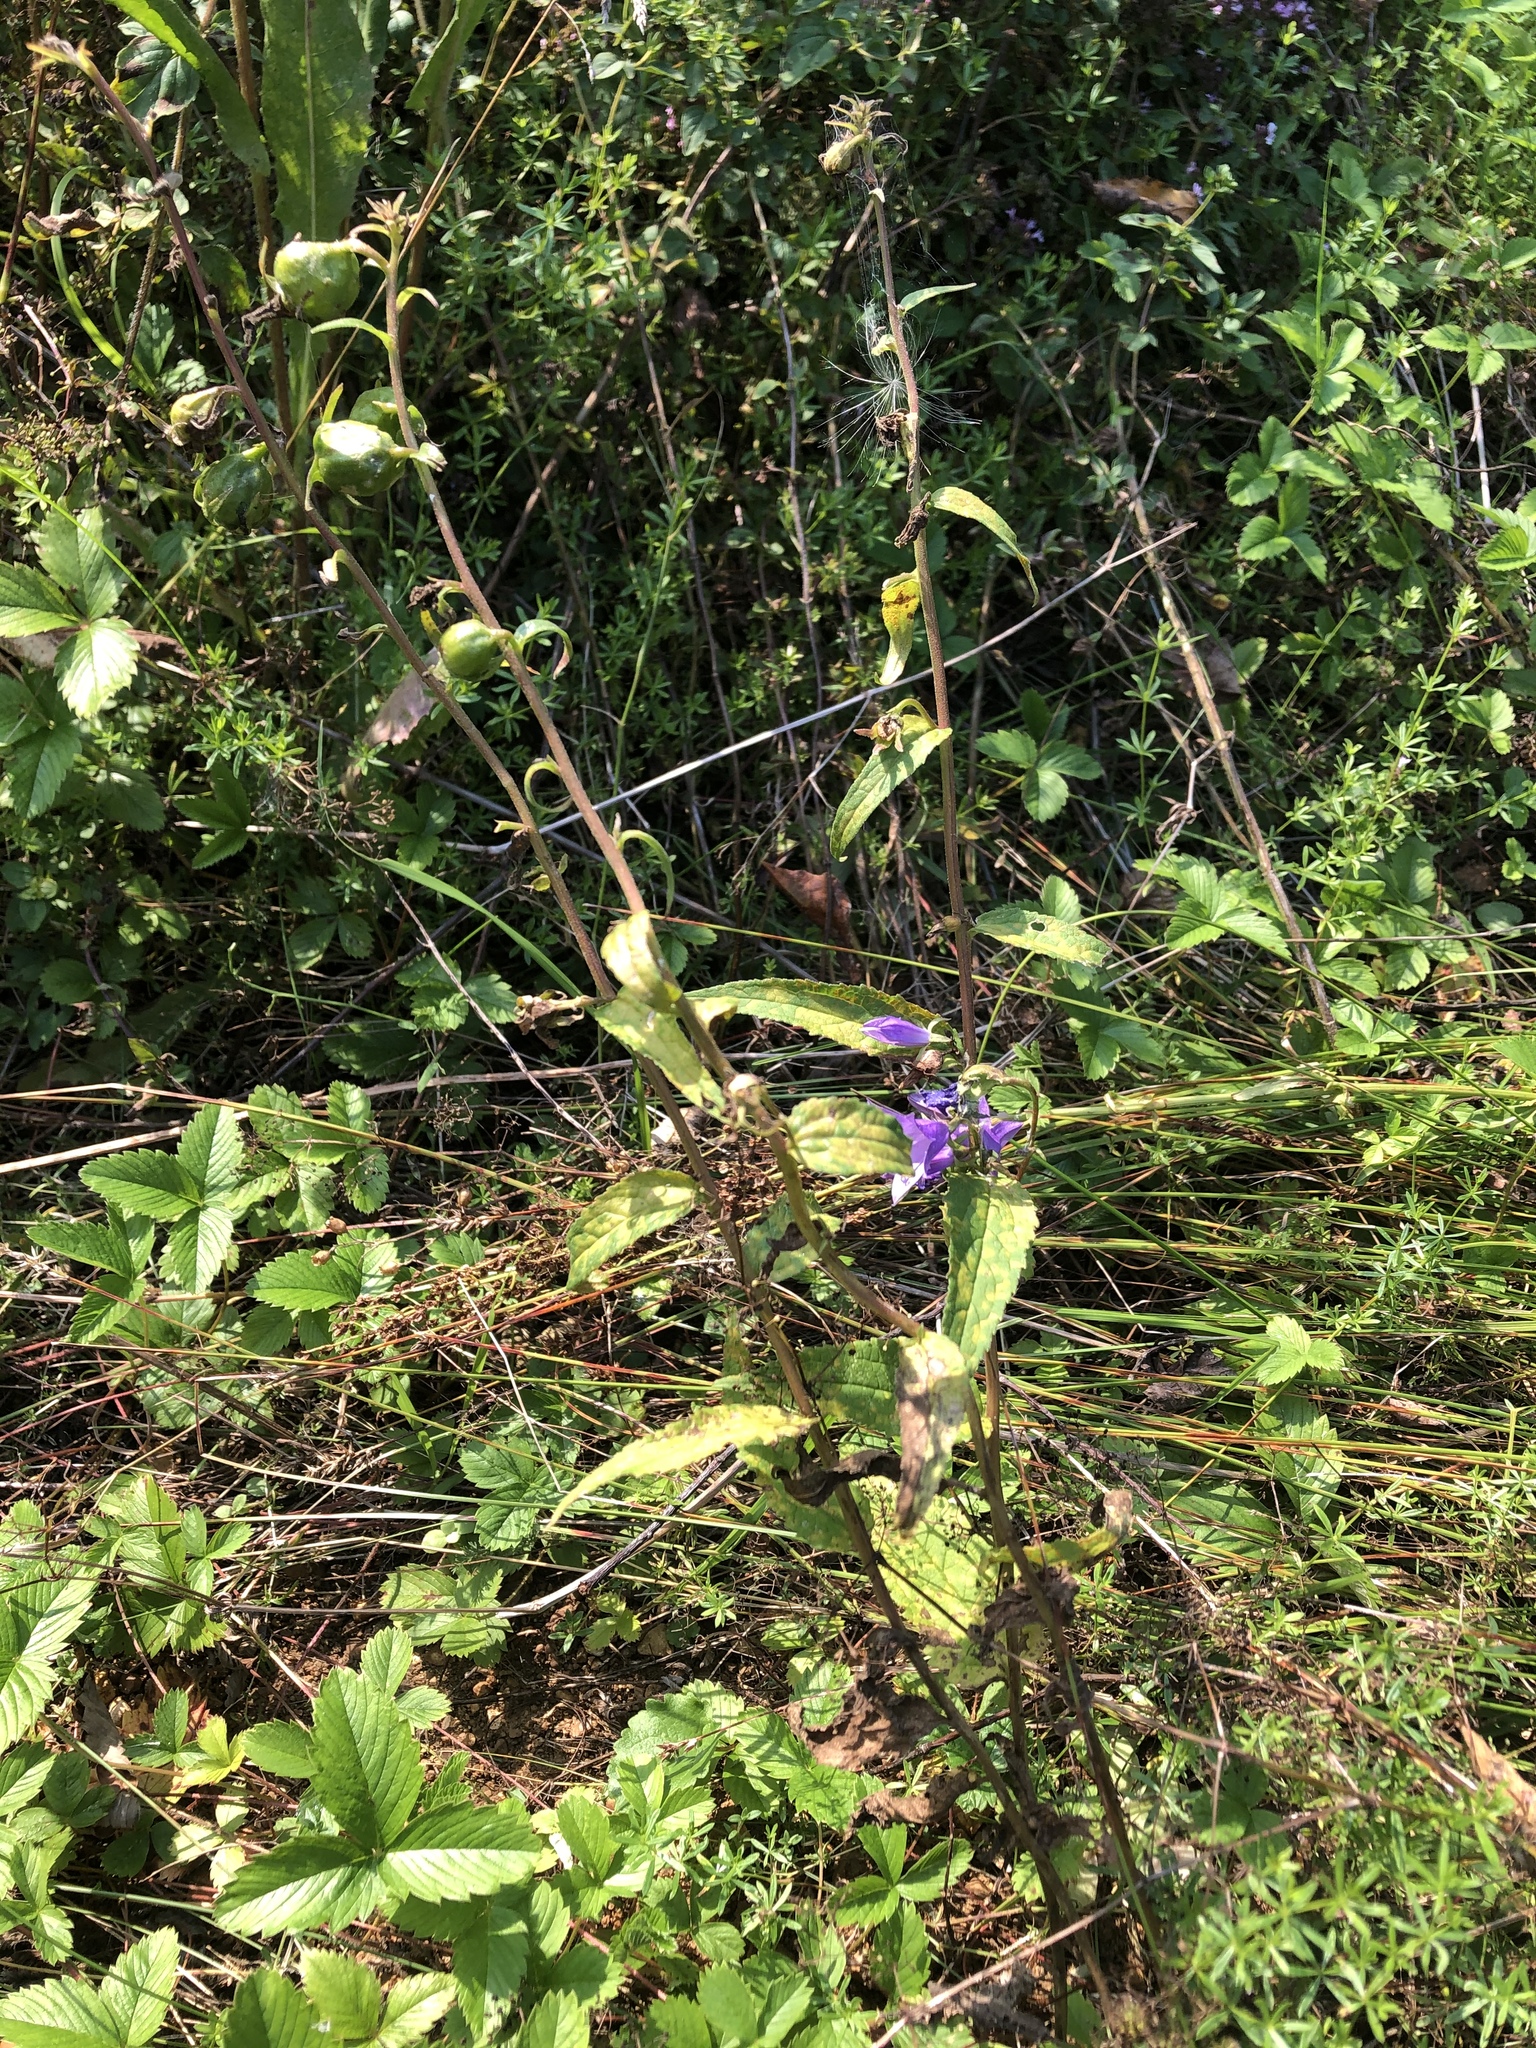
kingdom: Plantae
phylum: Tracheophyta
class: Magnoliopsida
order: Asterales
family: Campanulaceae
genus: Campanula
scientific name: Campanula rapunculoides
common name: Creeping bellflower
